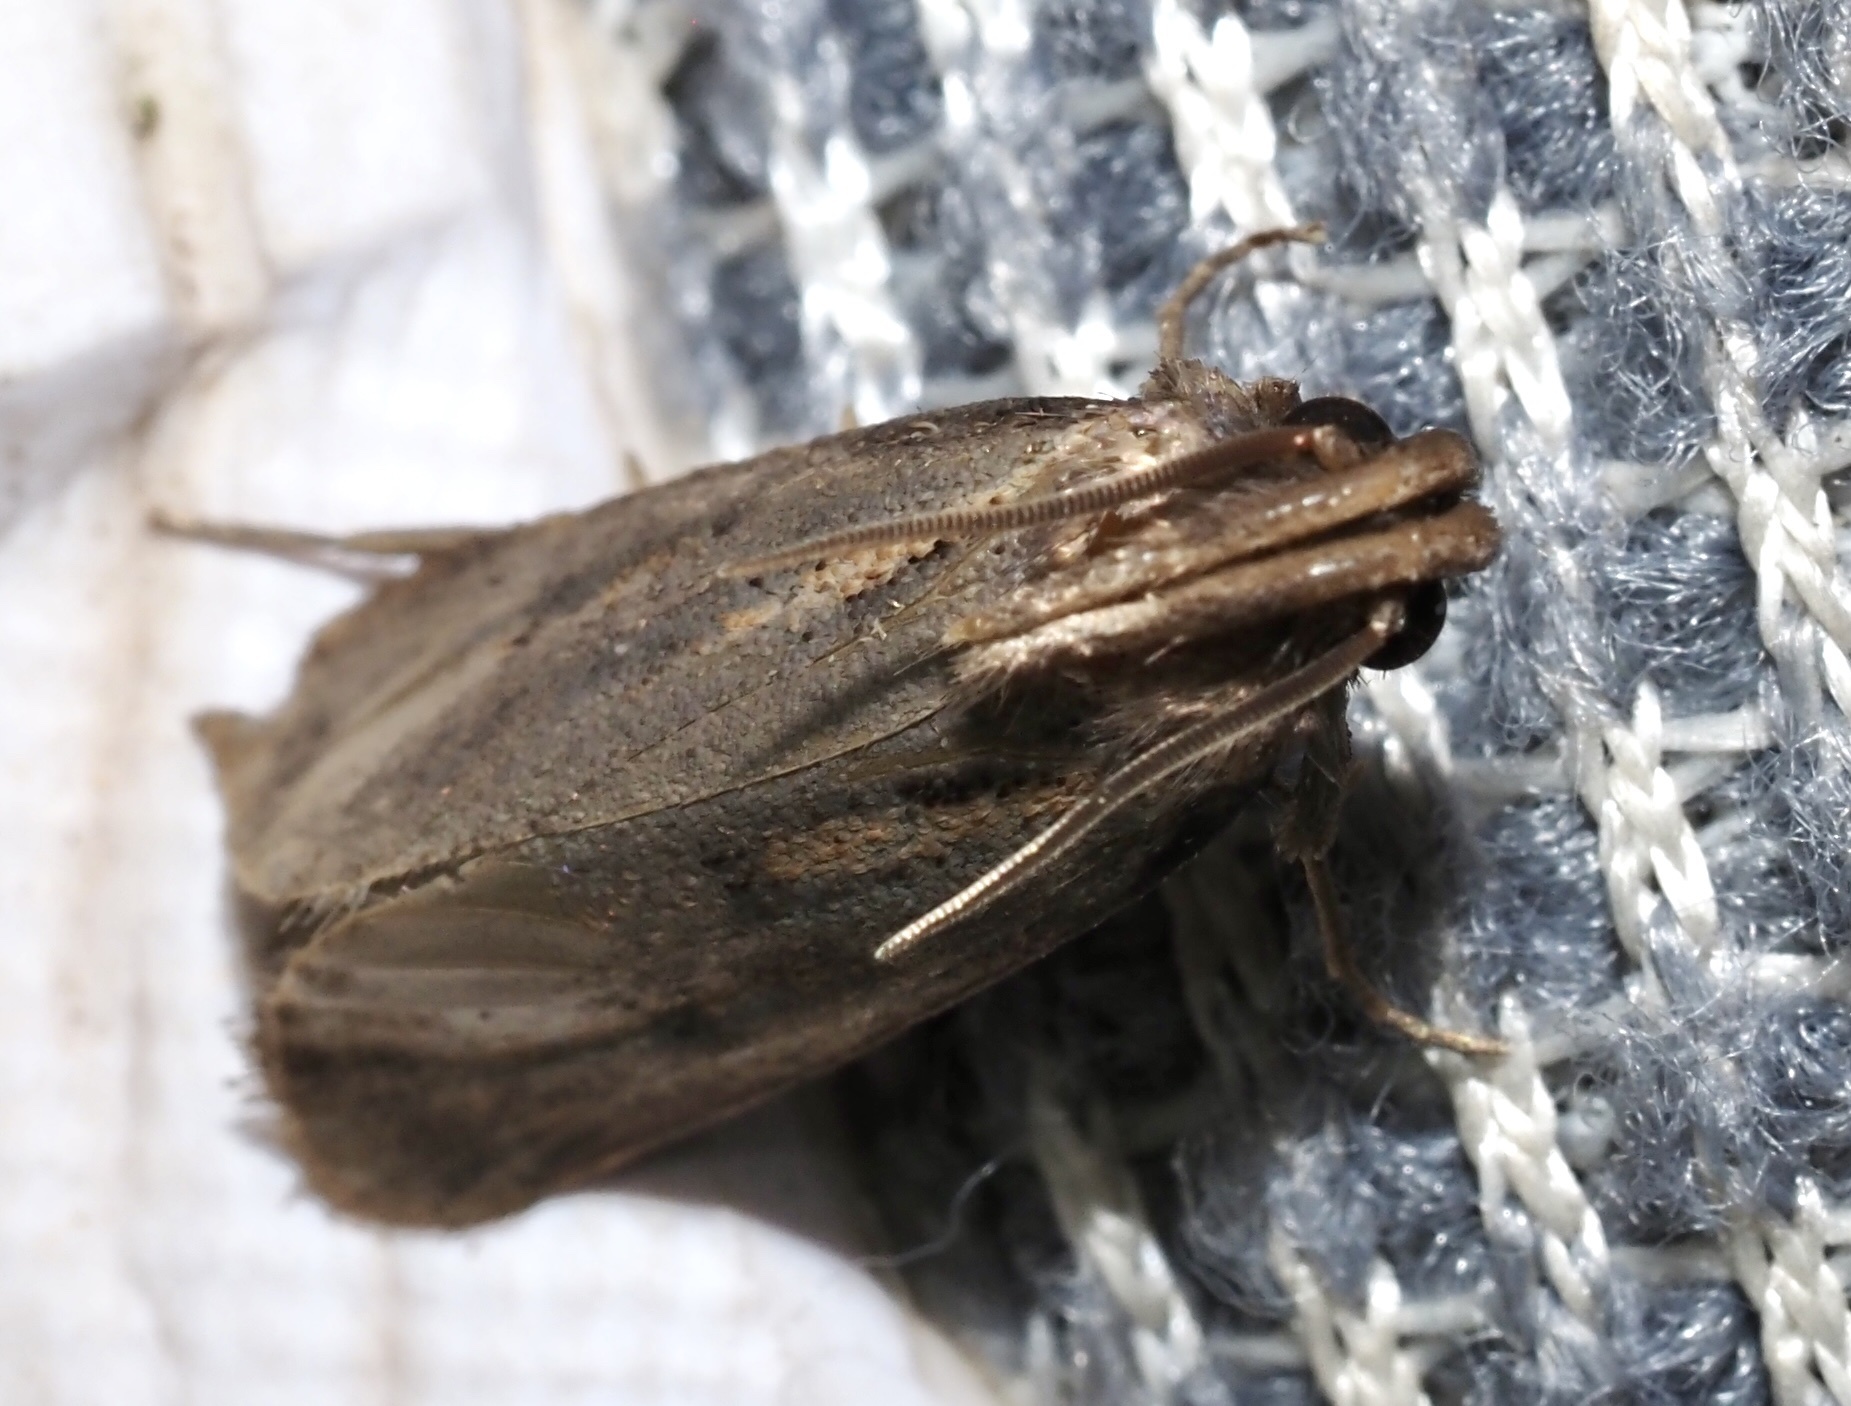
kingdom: Animalia
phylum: Arthropoda
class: Insecta
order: Lepidoptera
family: Tineidae
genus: Acrolophus
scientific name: Acrolophus popeanella
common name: Clemens' grass tubeworm moth
